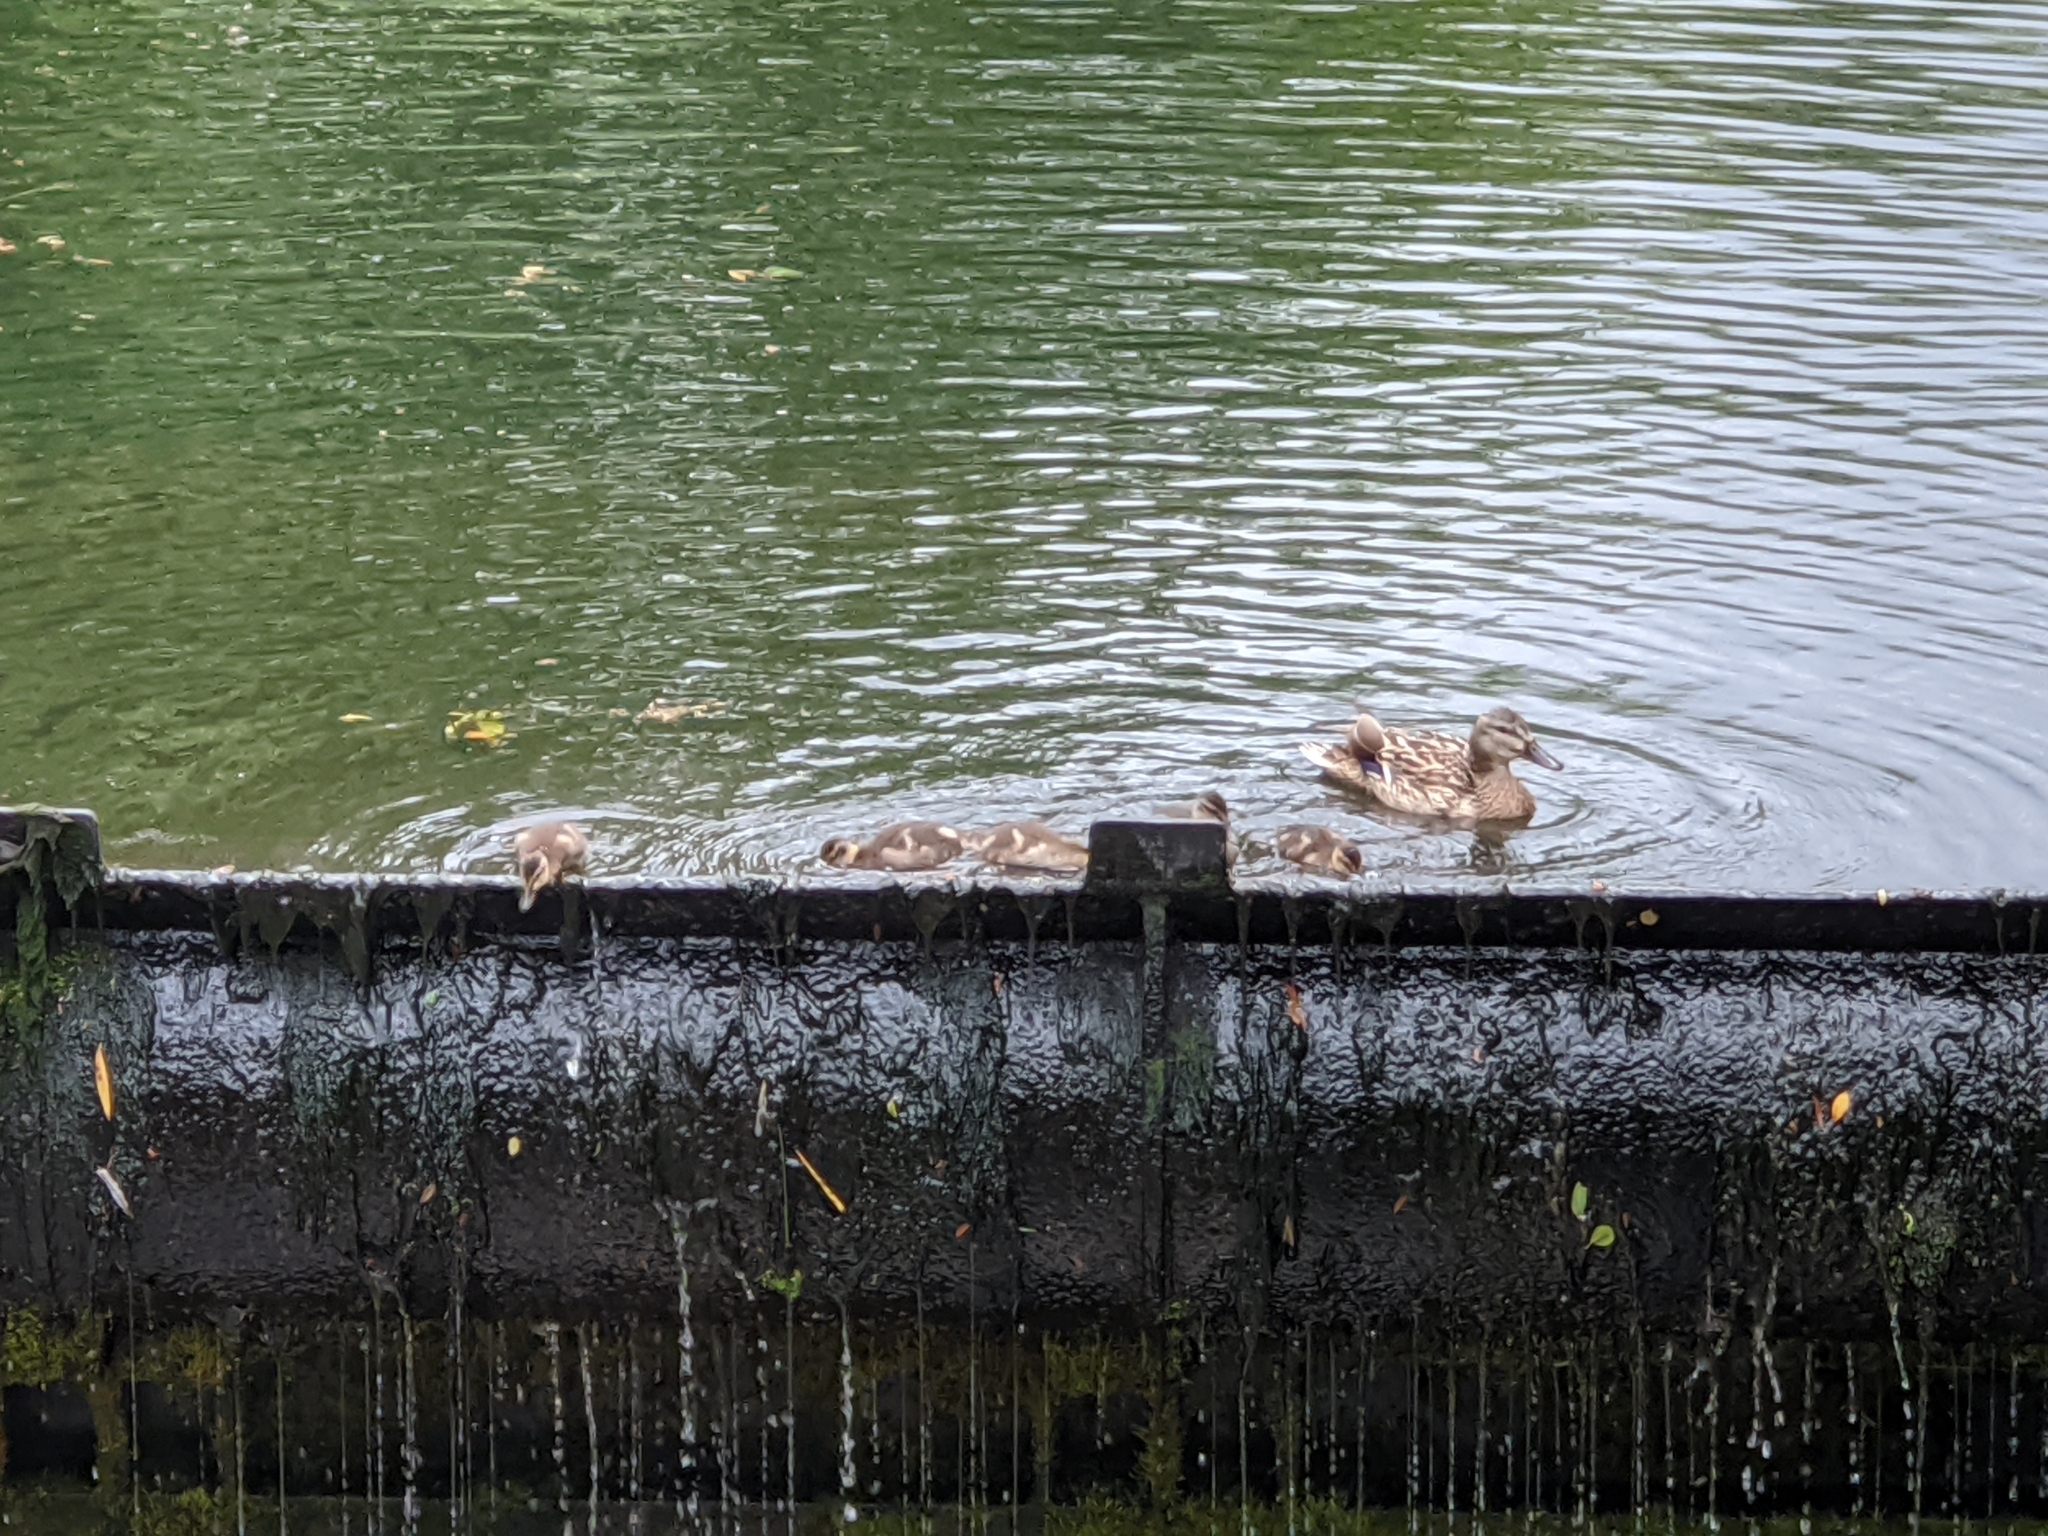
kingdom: Animalia
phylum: Chordata
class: Aves
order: Anseriformes
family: Anatidae
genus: Anas
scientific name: Anas platyrhynchos
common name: Mallard
